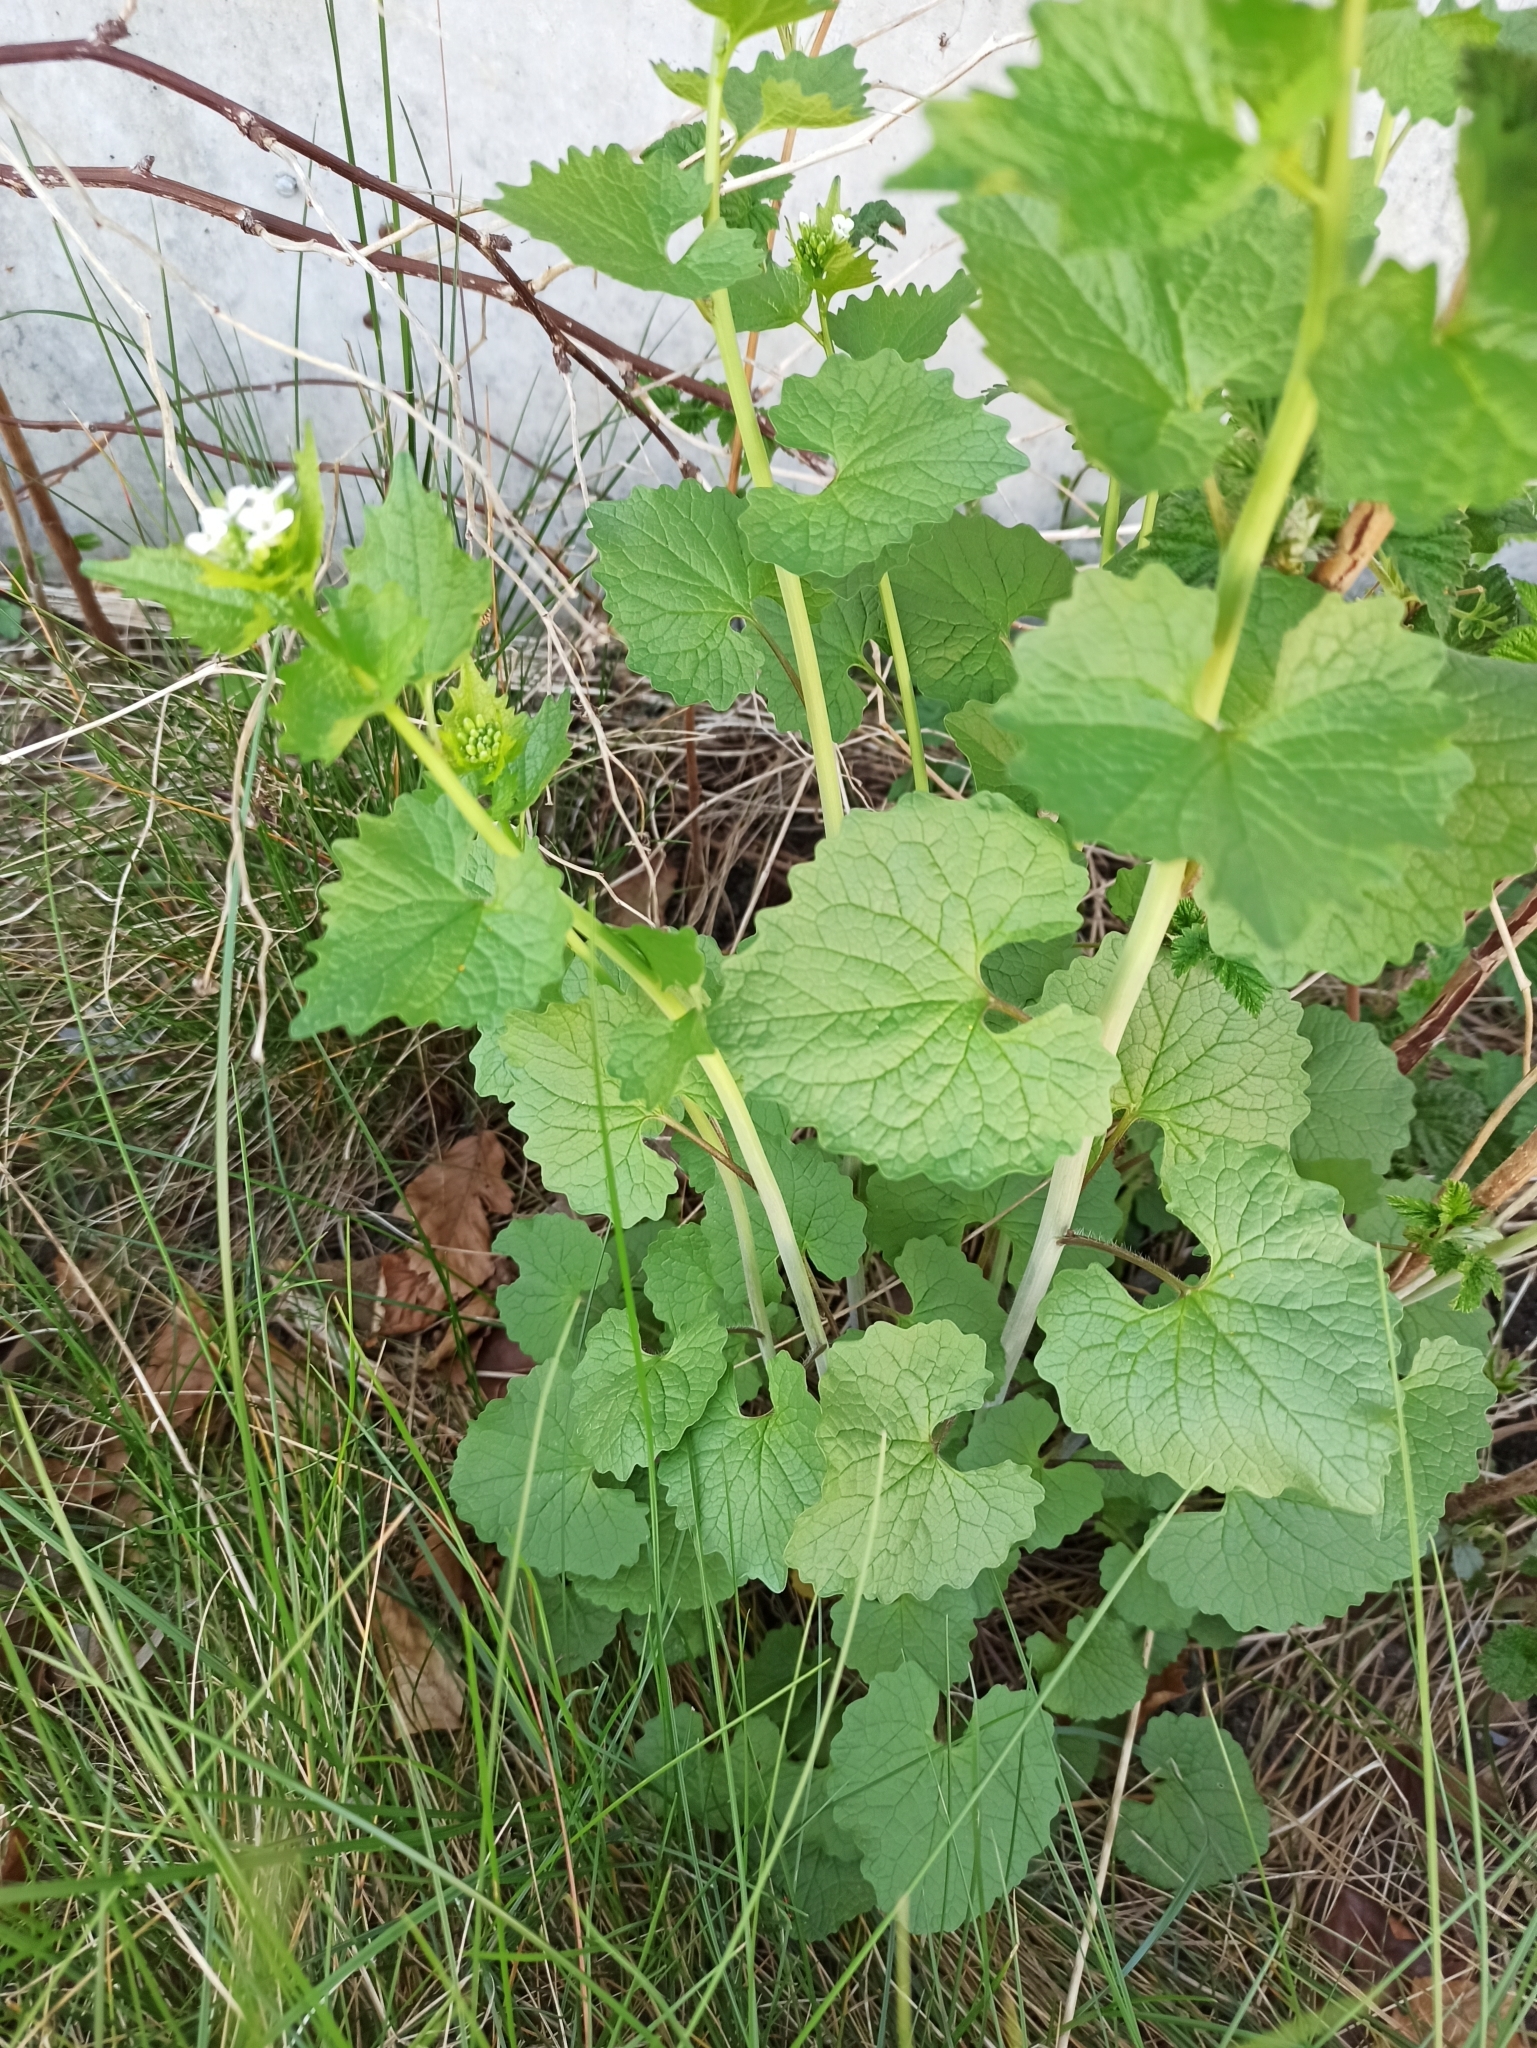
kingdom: Plantae
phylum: Tracheophyta
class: Magnoliopsida
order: Brassicales
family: Brassicaceae
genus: Alliaria
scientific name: Alliaria petiolata
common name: Garlic mustard
